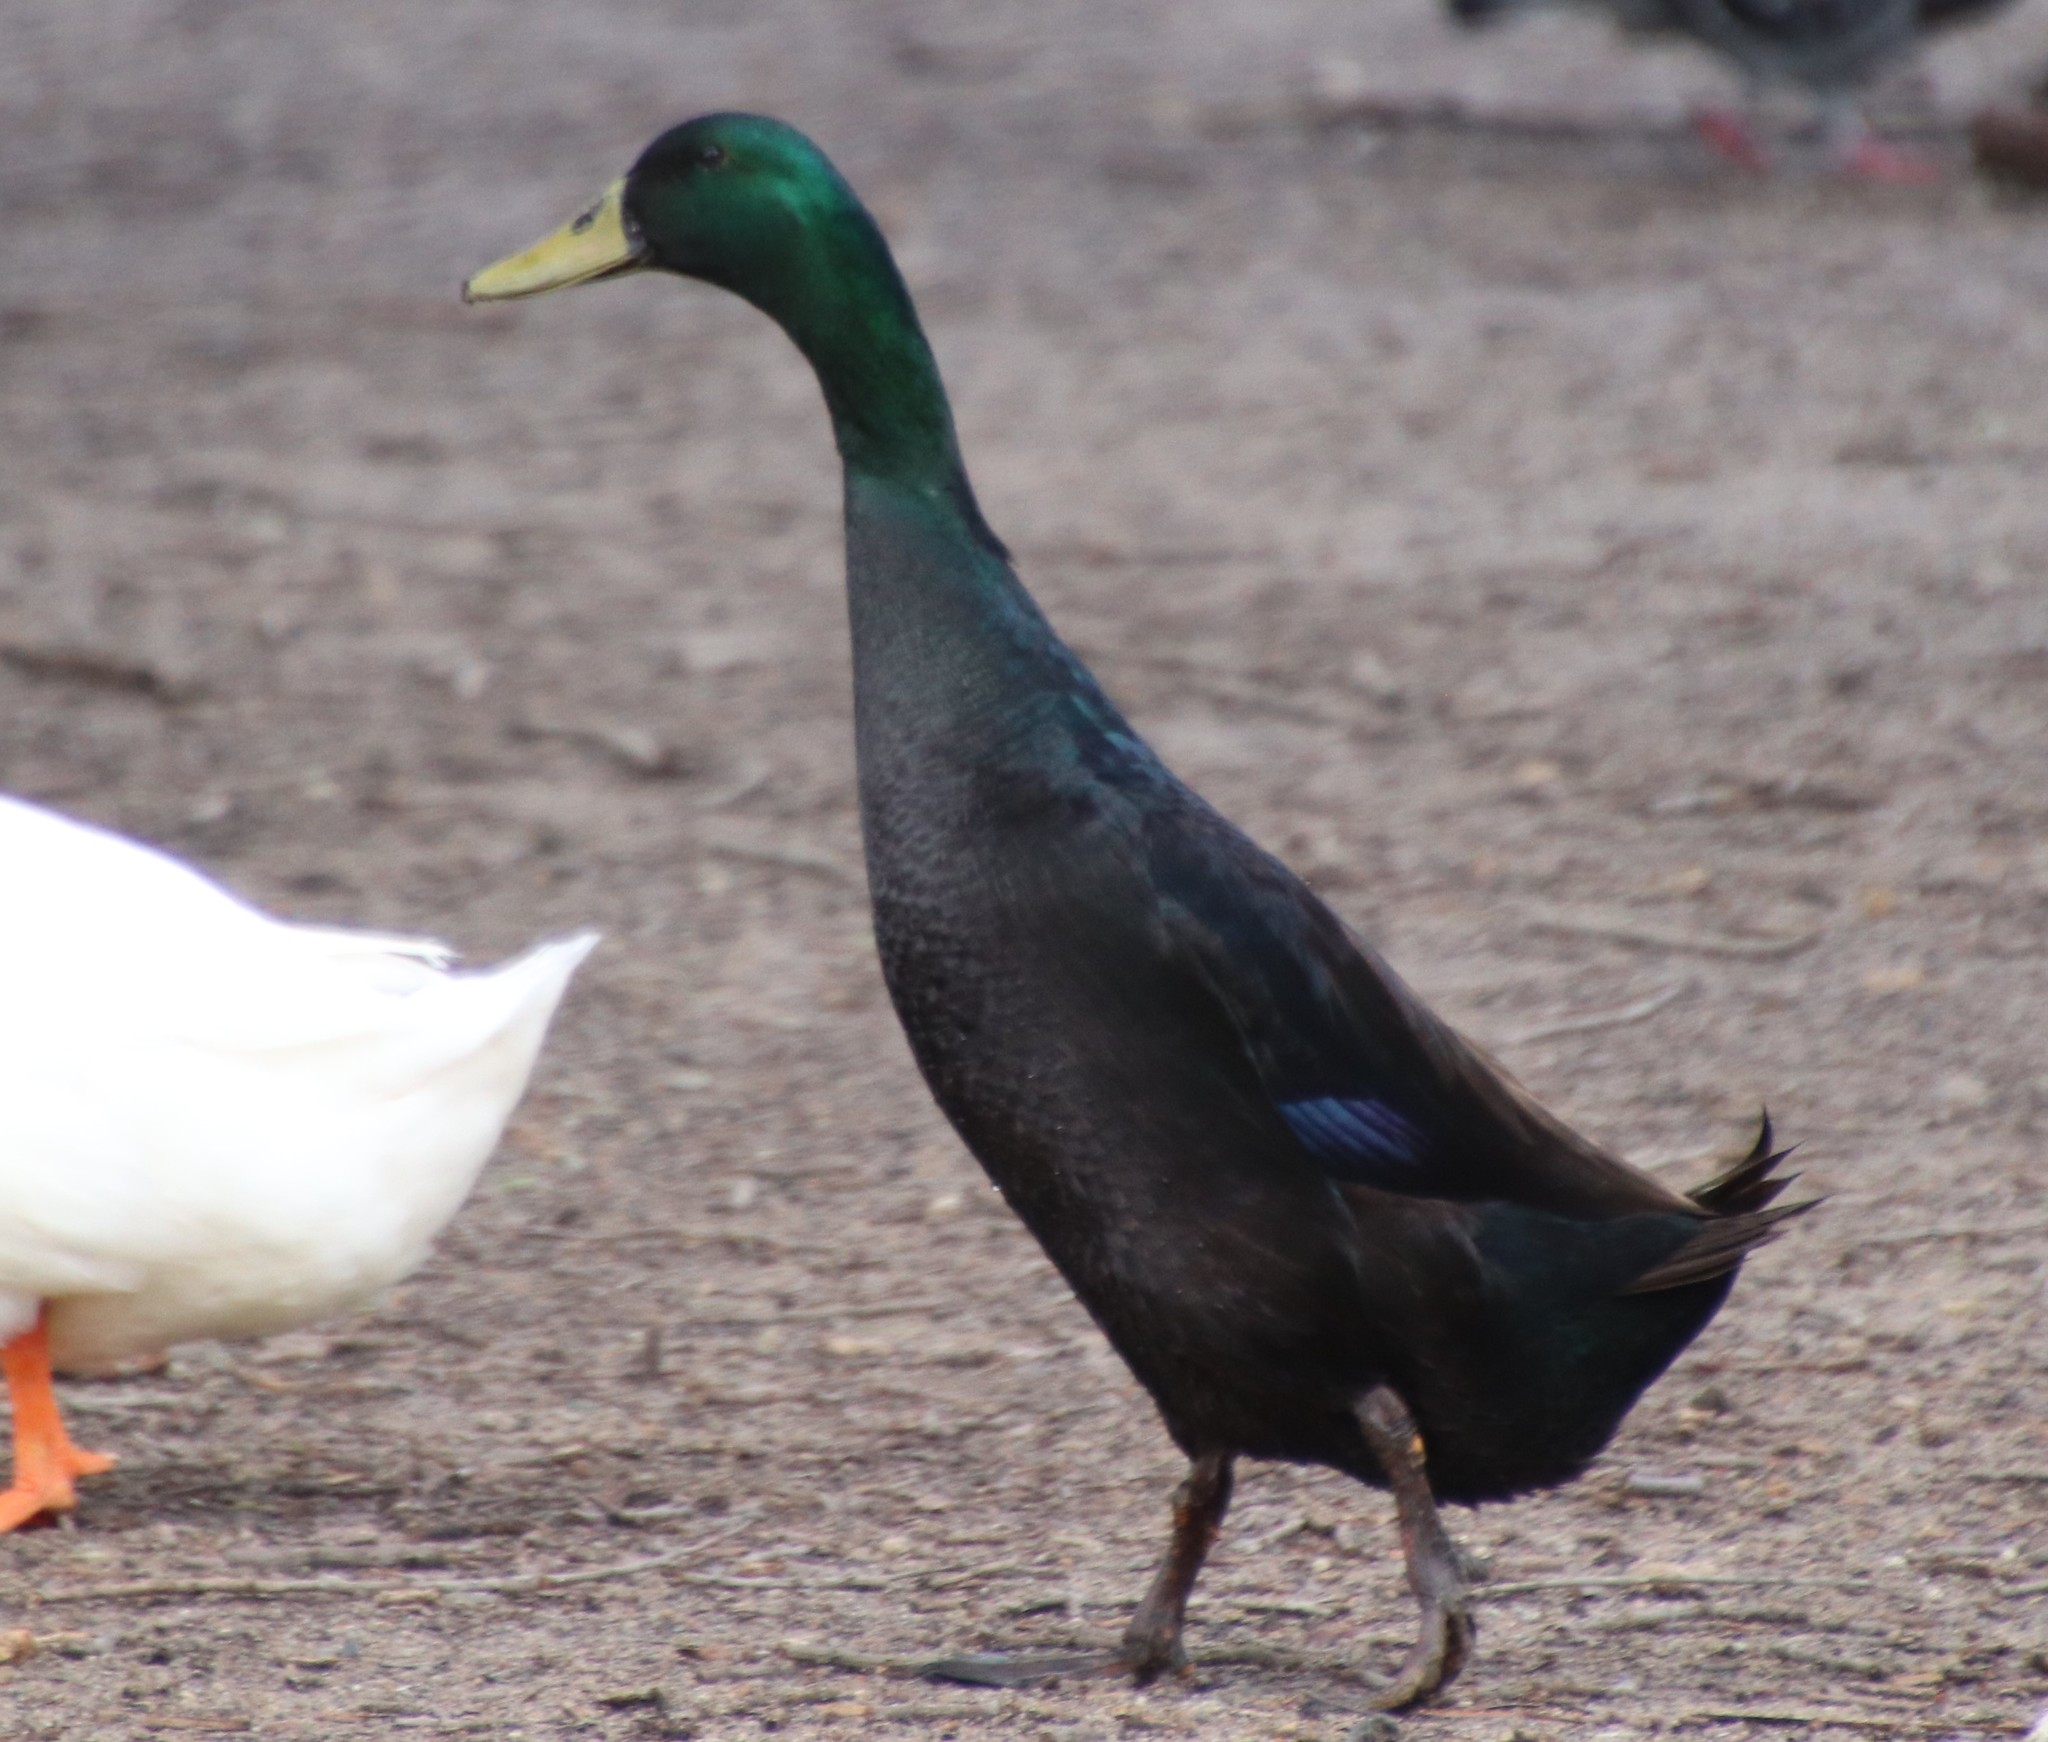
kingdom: Animalia
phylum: Chordata
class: Aves
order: Anseriformes
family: Anatidae
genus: Anas
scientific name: Anas platyrhynchos
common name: Mallard
